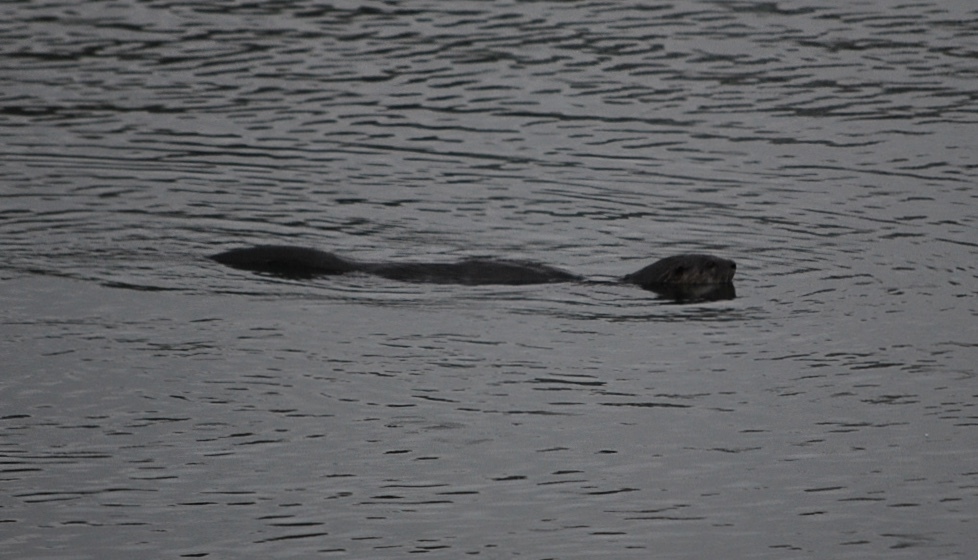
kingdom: Animalia
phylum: Chordata
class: Mammalia
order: Carnivora
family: Mustelidae
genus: Lontra
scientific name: Lontra canadensis
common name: North american river otter
